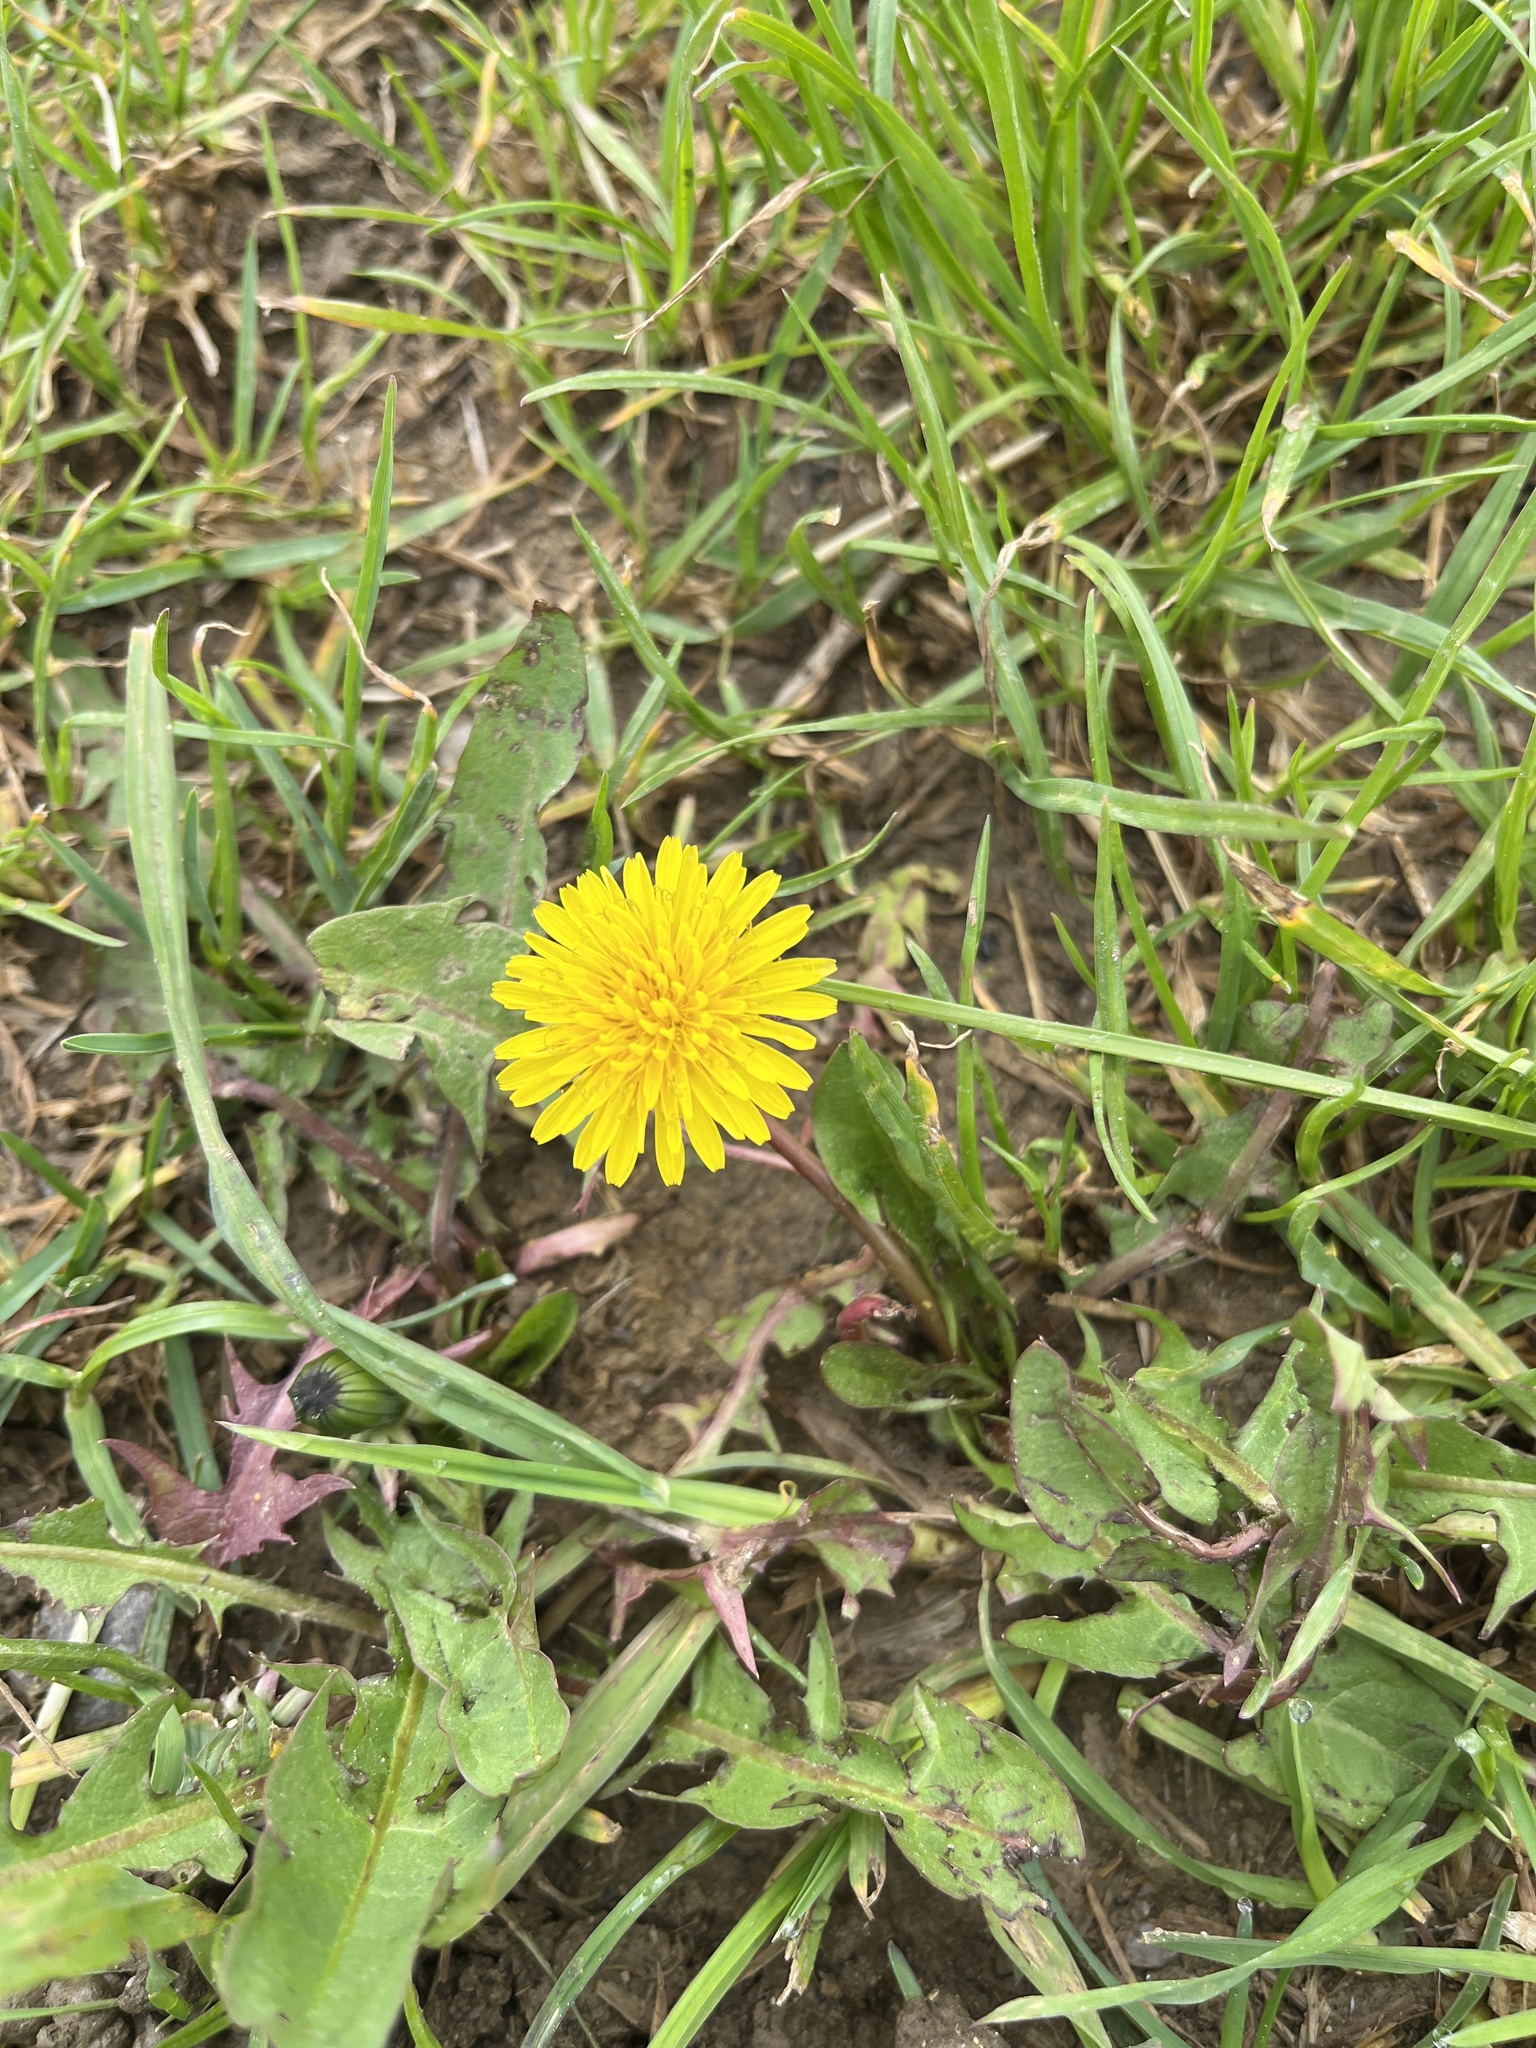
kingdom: Plantae
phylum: Tracheophyta
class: Magnoliopsida
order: Asterales
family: Asteraceae
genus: Taraxacum
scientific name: Taraxacum officinale
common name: Common dandelion
